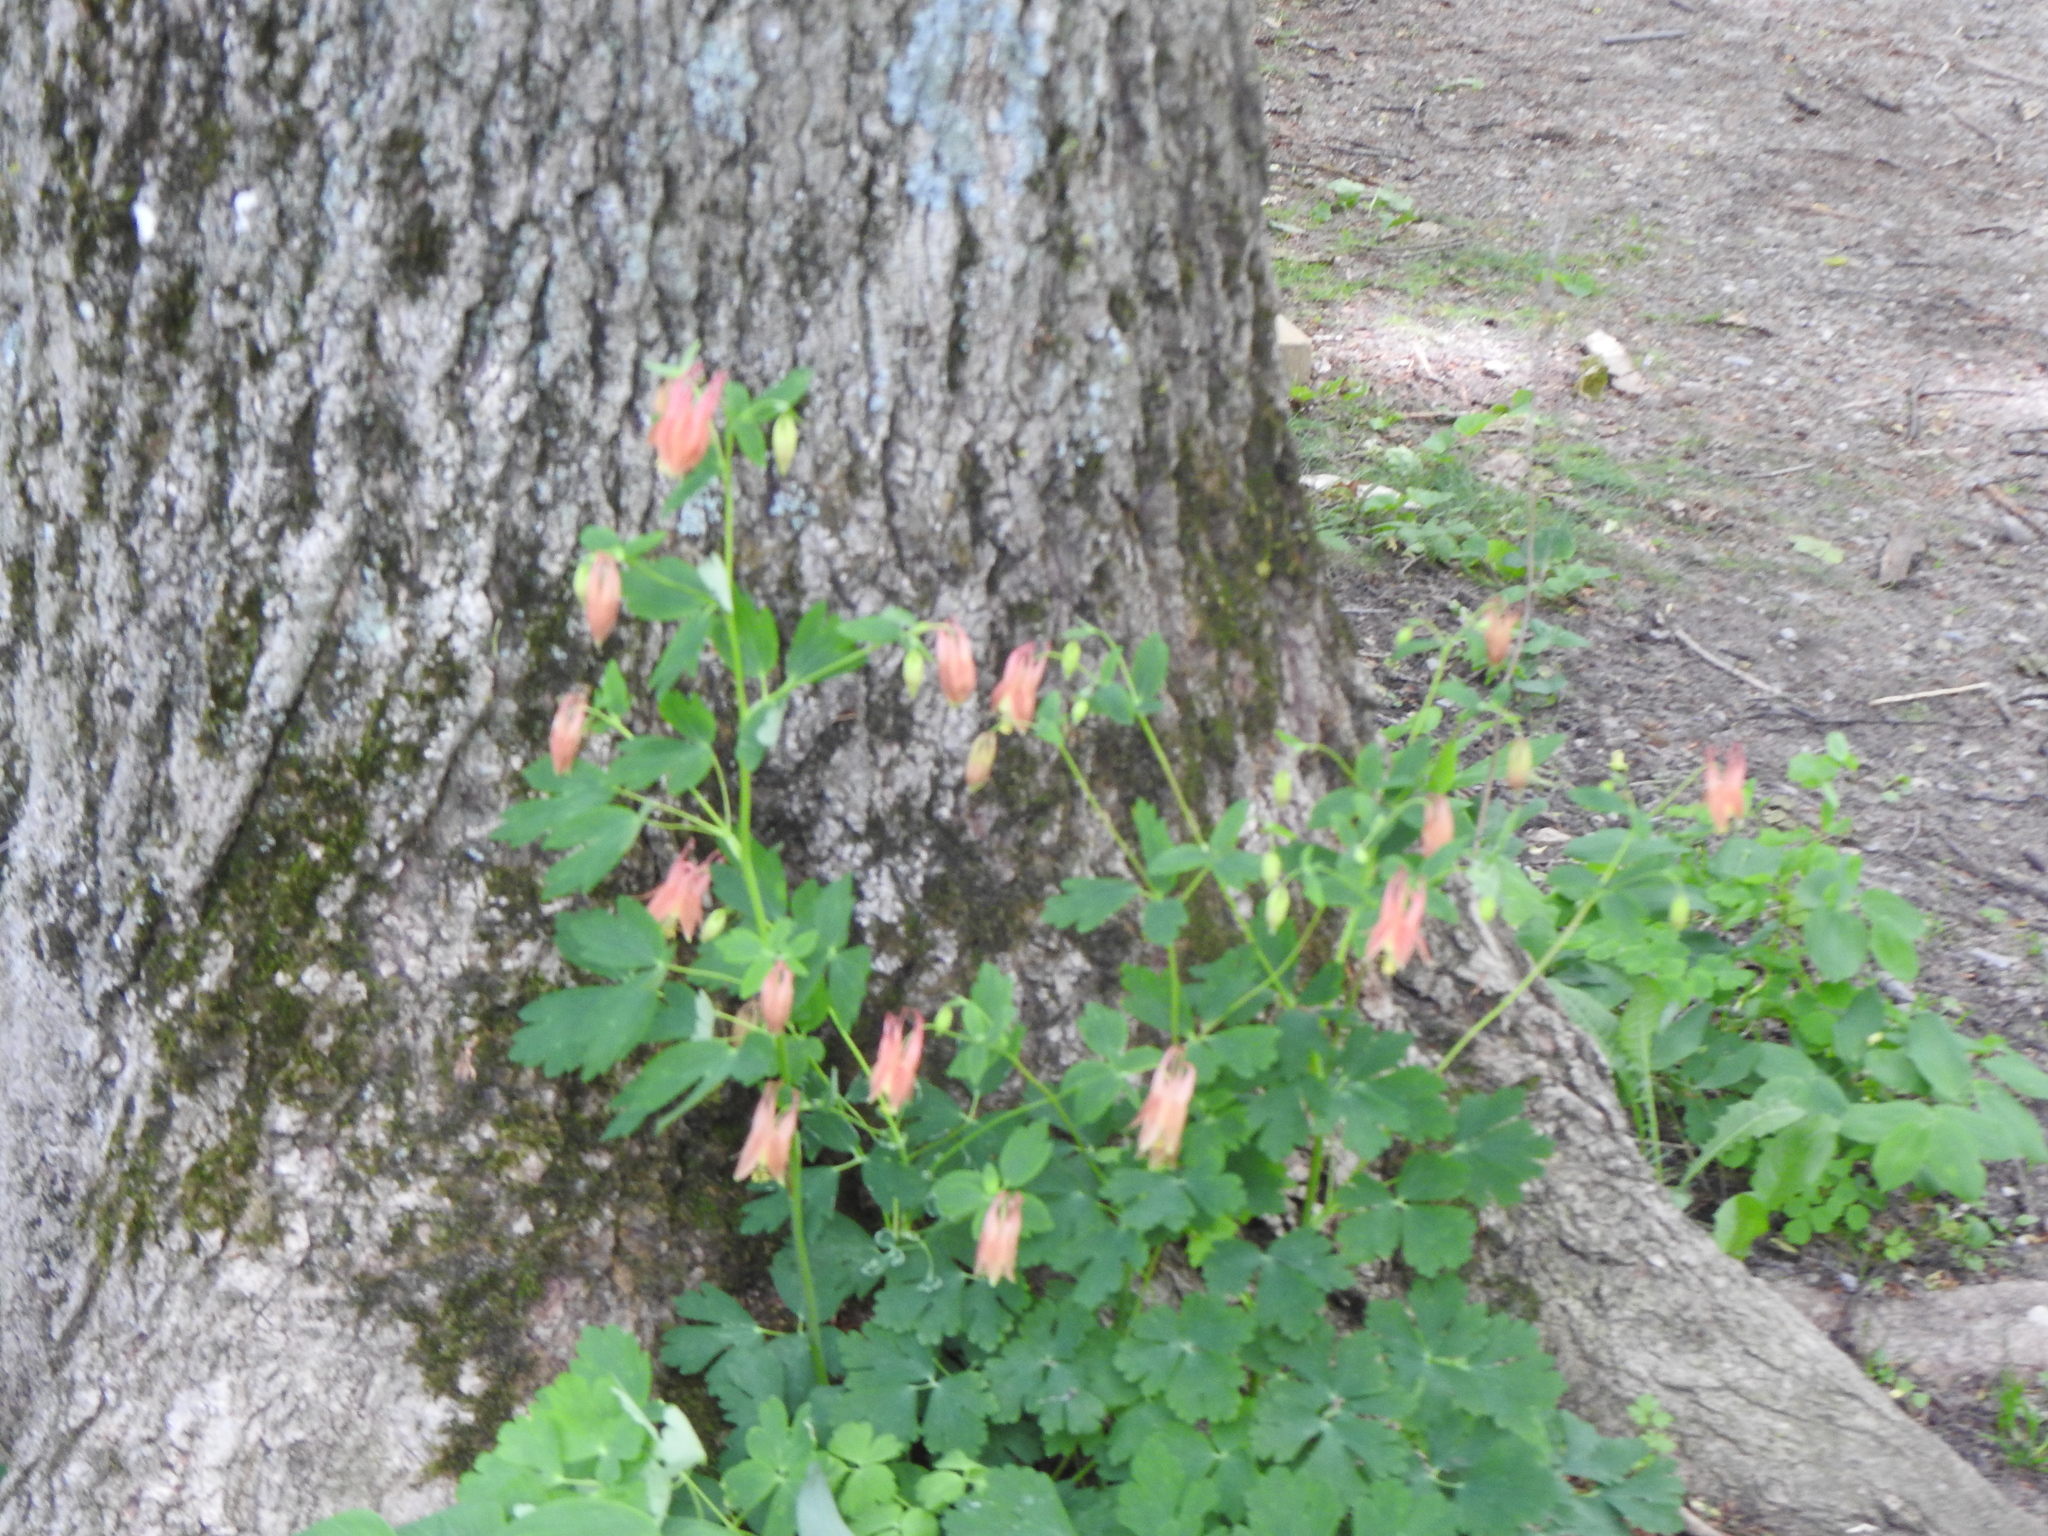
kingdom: Plantae
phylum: Tracheophyta
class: Magnoliopsida
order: Ranunculales
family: Ranunculaceae
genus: Aquilegia
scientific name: Aquilegia canadensis
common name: American columbine
